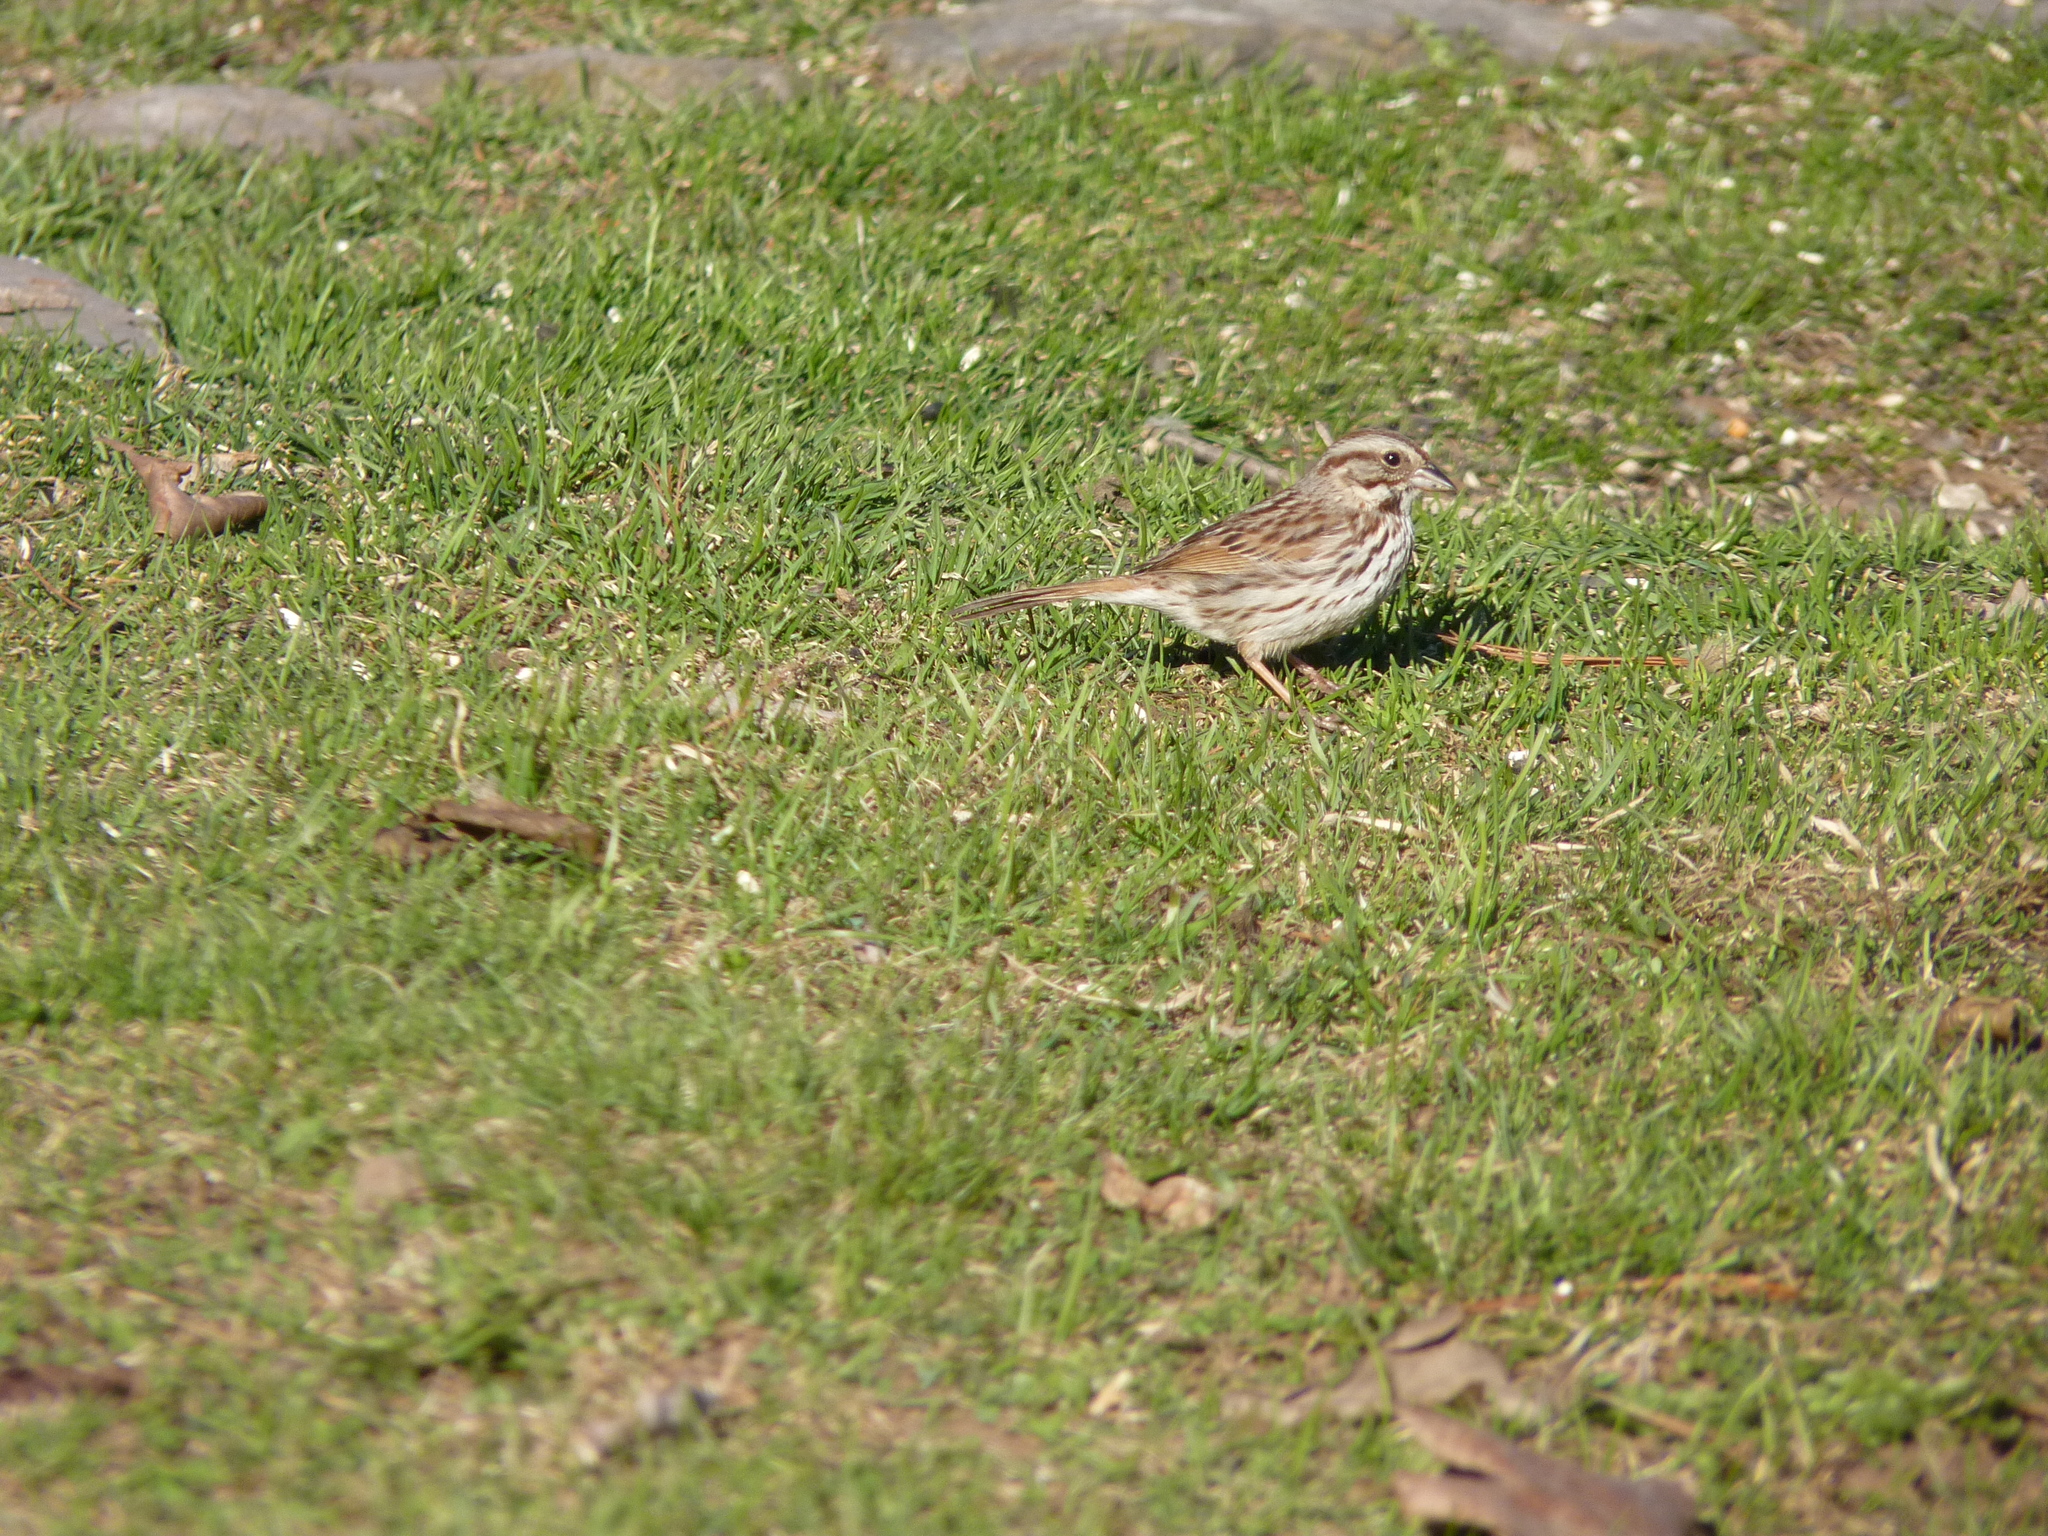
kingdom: Animalia
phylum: Chordata
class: Aves
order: Passeriformes
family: Passerellidae
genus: Melospiza
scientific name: Melospiza melodia
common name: Song sparrow
